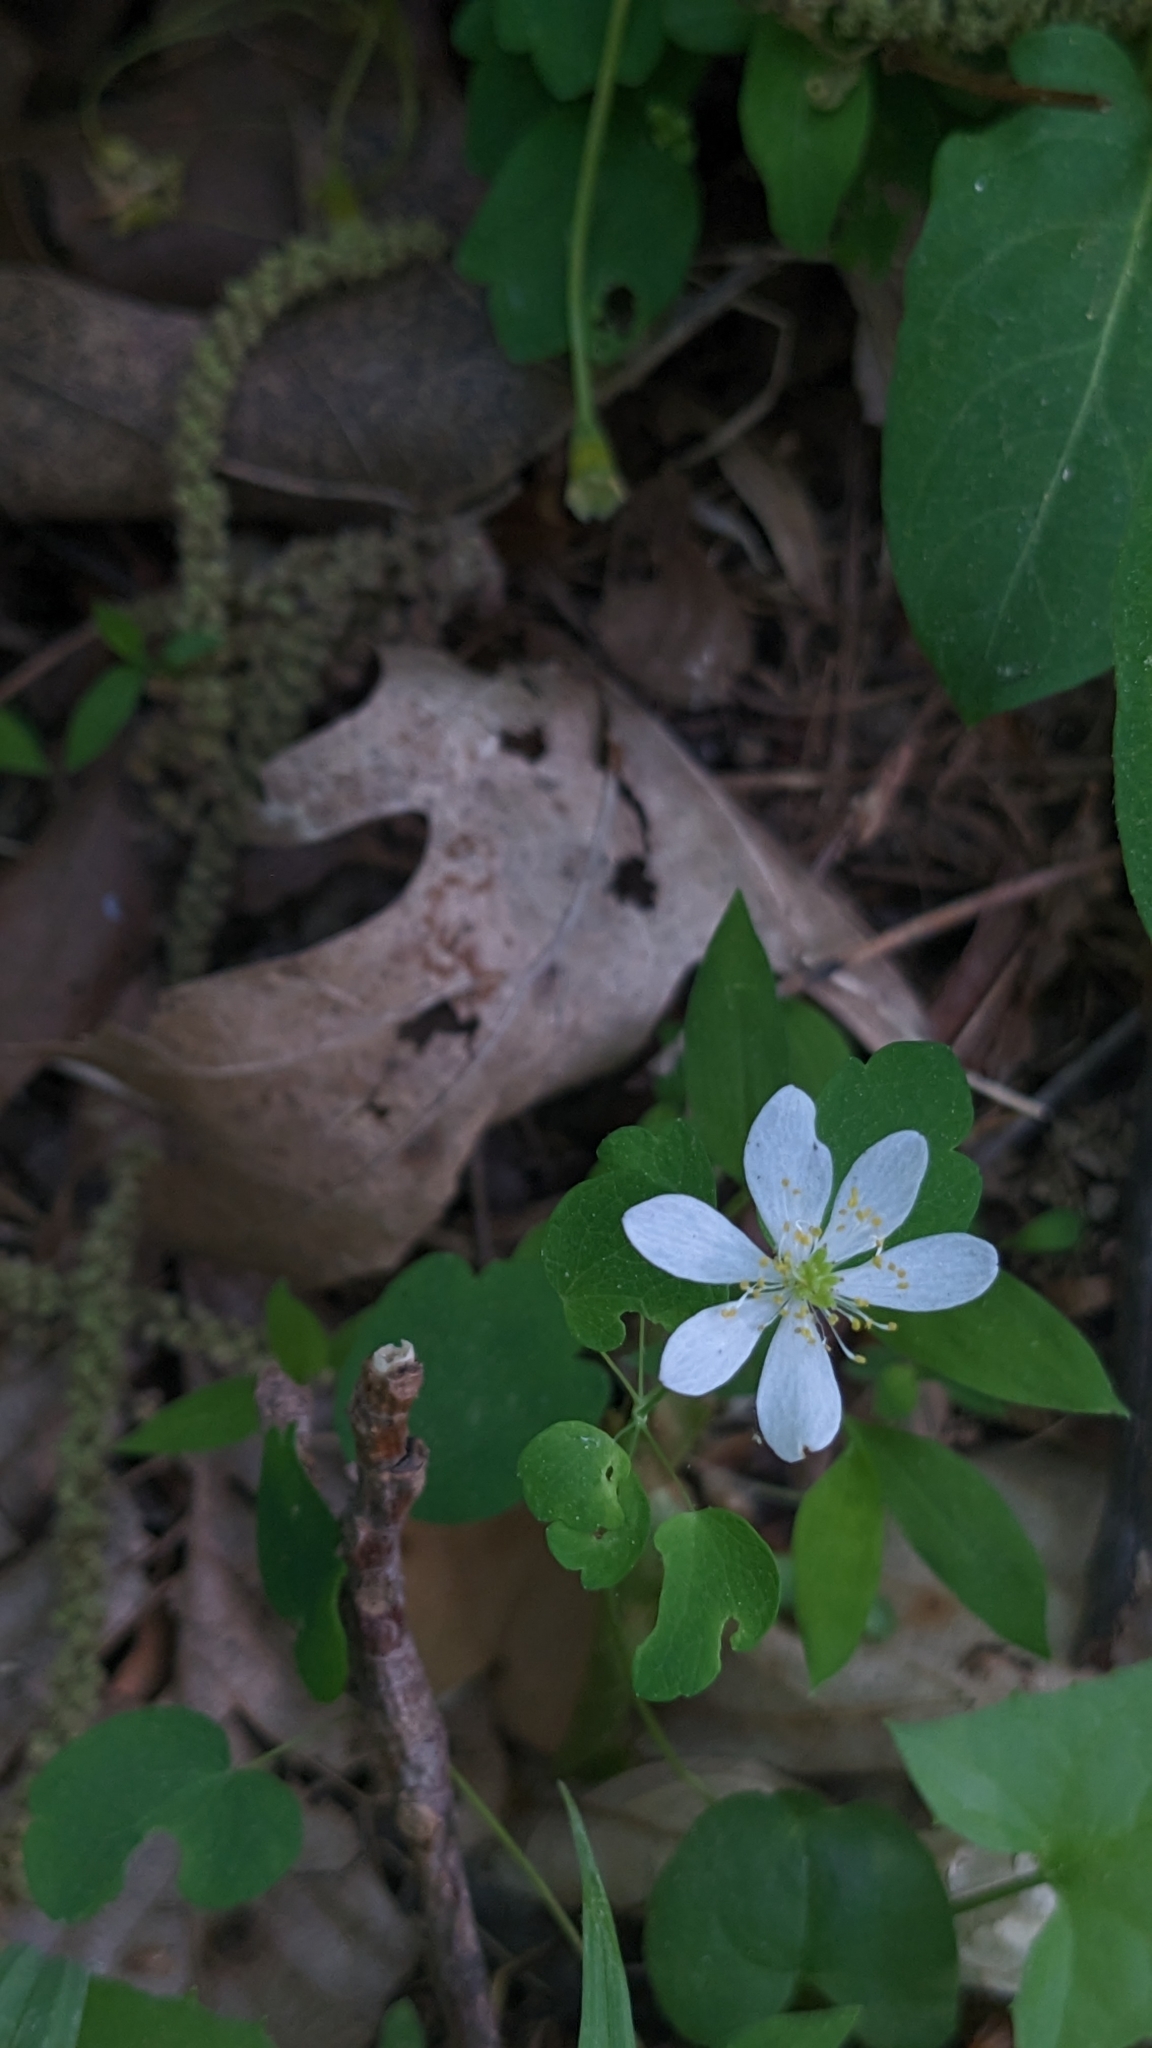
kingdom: Plantae
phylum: Tracheophyta
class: Magnoliopsida
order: Ranunculales
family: Ranunculaceae
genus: Thalictrum
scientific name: Thalictrum thalictroides
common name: Rue-anemone
